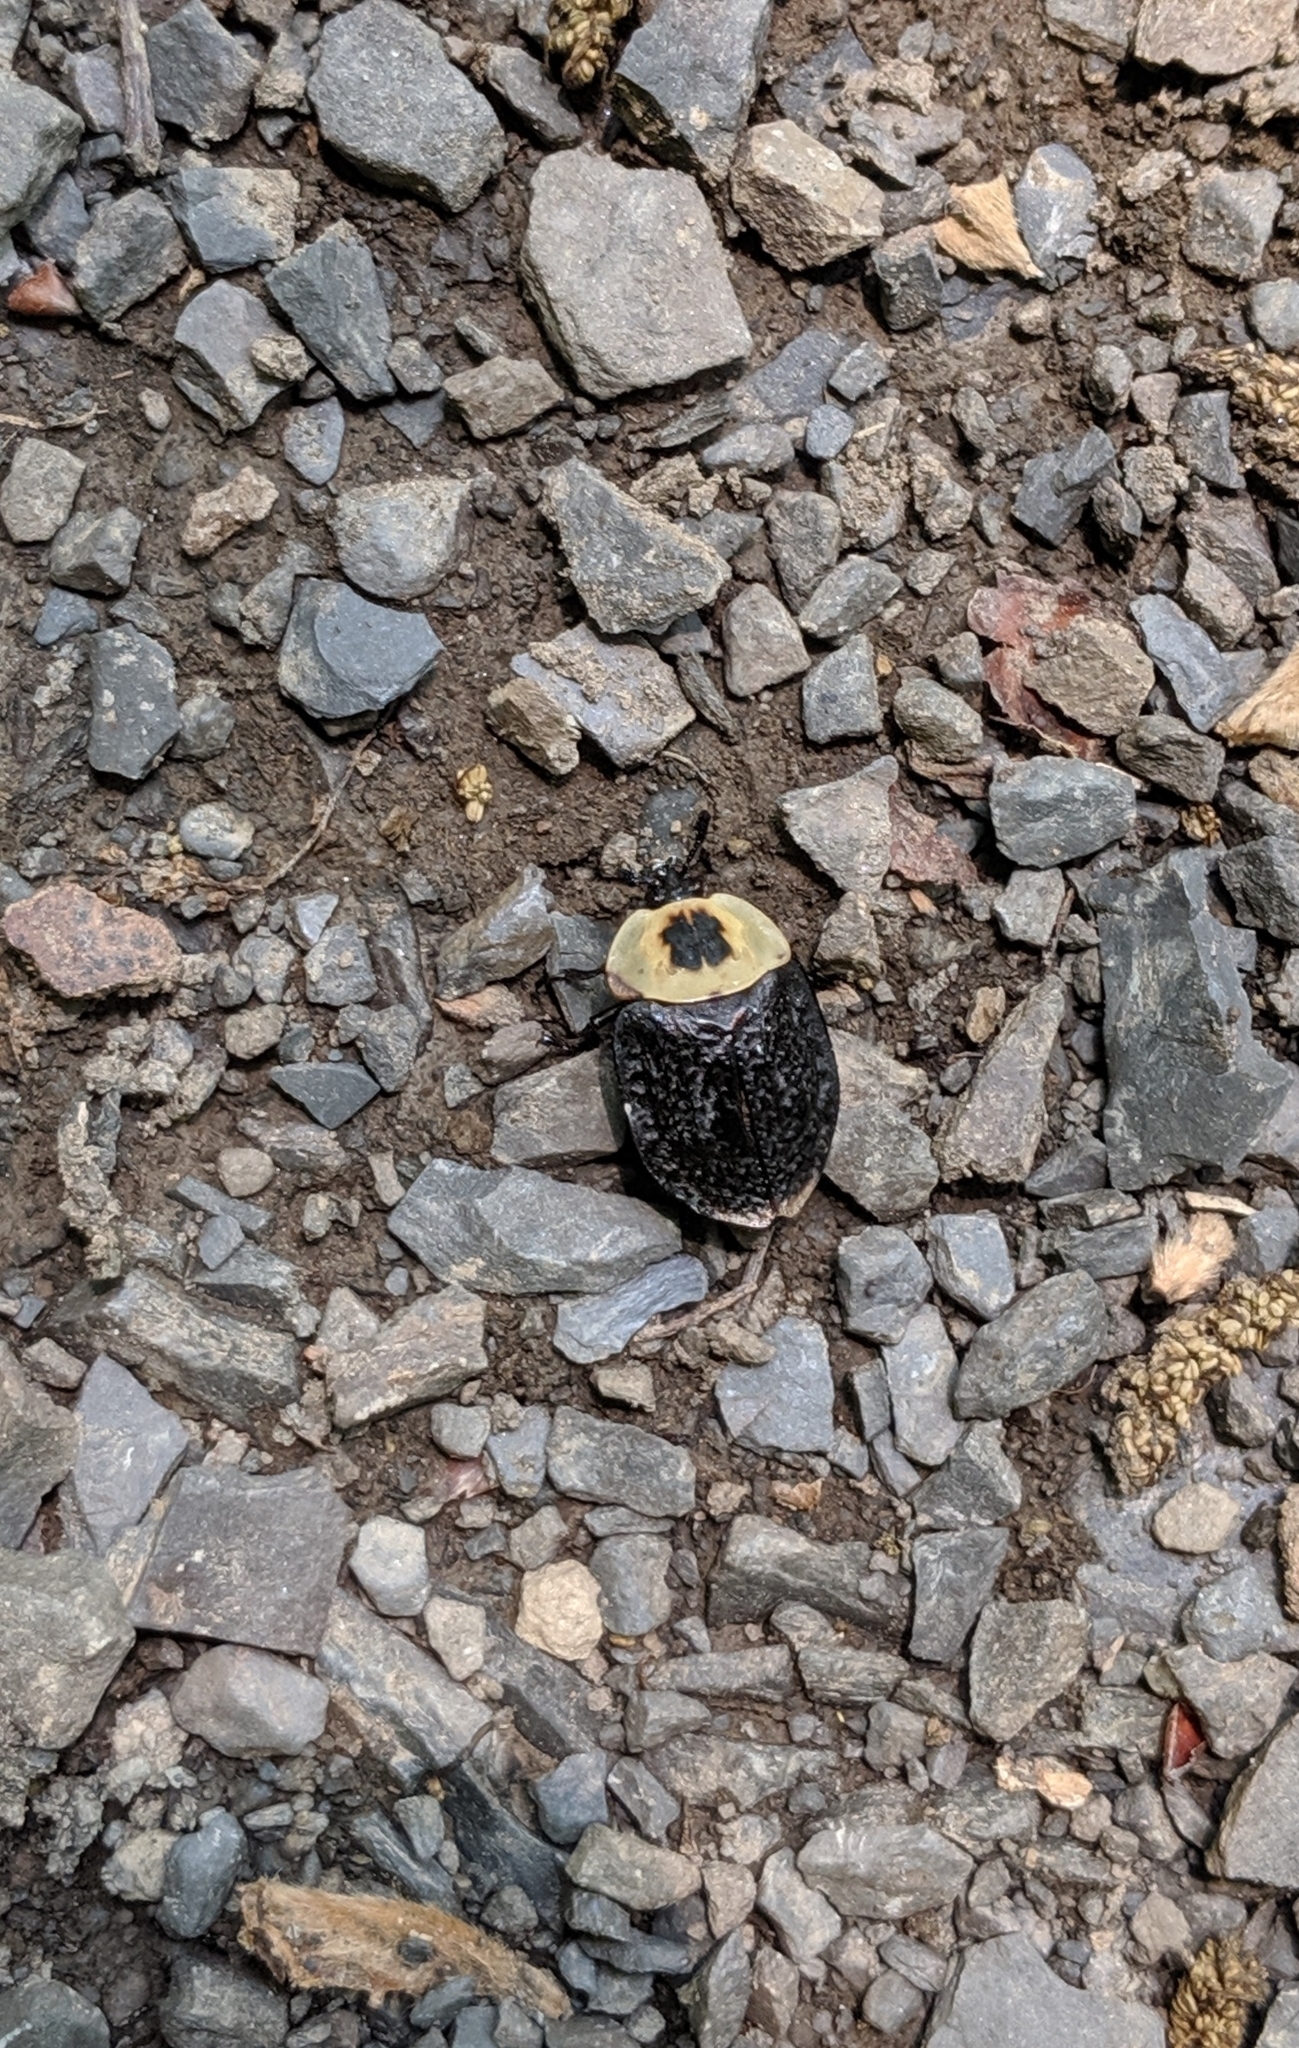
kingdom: Animalia
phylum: Arthropoda
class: Insecta
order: Coleoptera
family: Staphylinidae
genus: Necrophila
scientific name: Necrophila americana
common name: American carrion beetle
